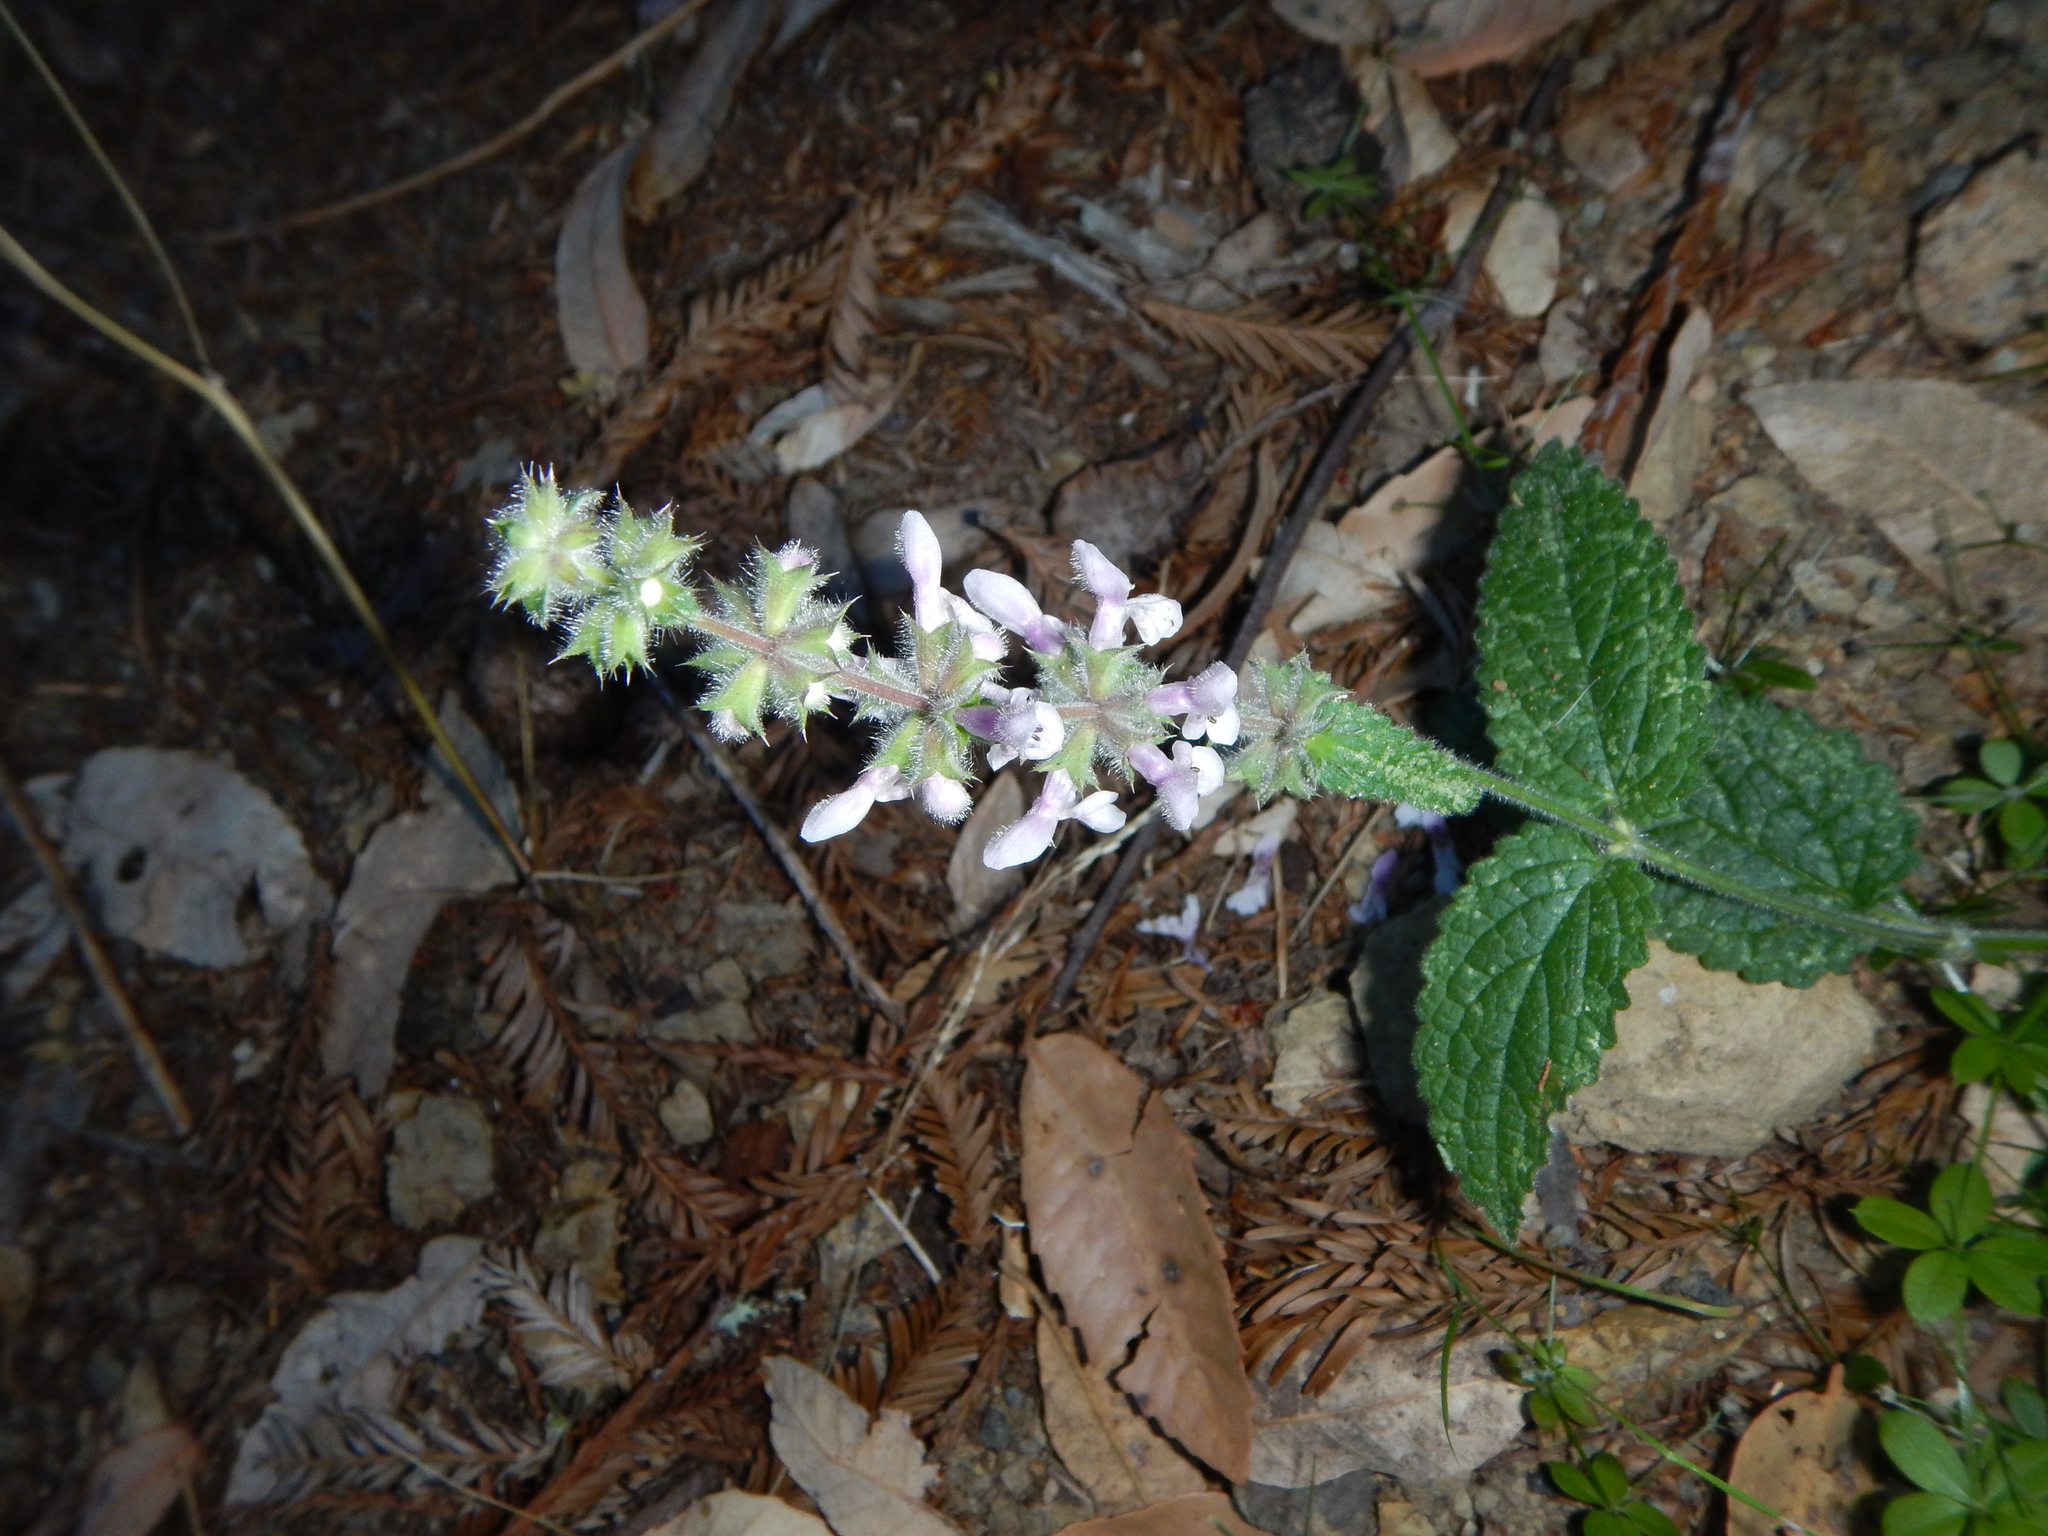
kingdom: Plantae
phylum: Tracheophyta
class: Magnoliopsida
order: Lamiales
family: Lamiaceae
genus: Stachys
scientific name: Stachys rigida
